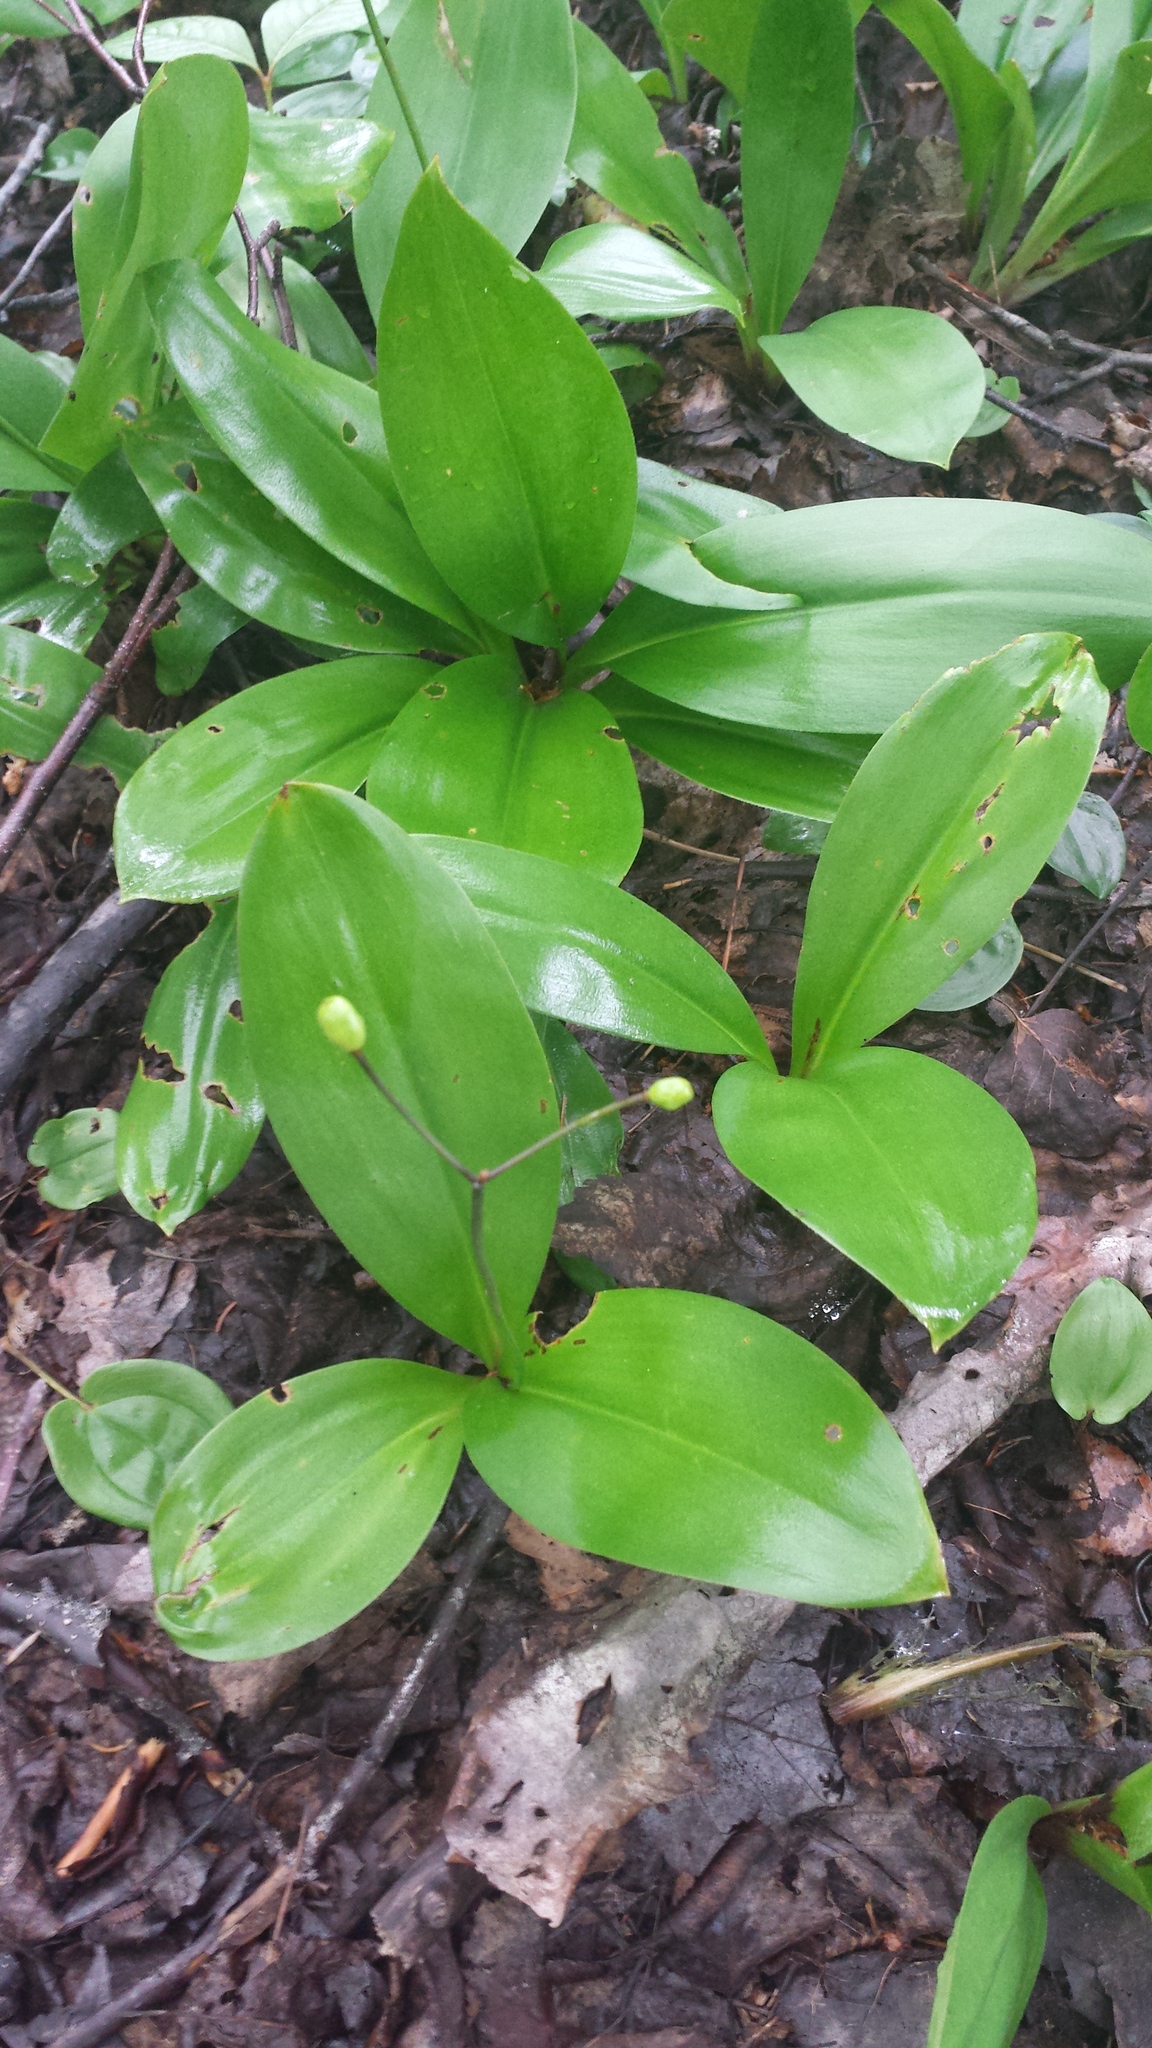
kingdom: Plantae
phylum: Tracheophyta
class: Liliopsida
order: Liliales
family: Liliaceae
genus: Clintonia
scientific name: Clintonia borealis
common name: Yellow clintonia
